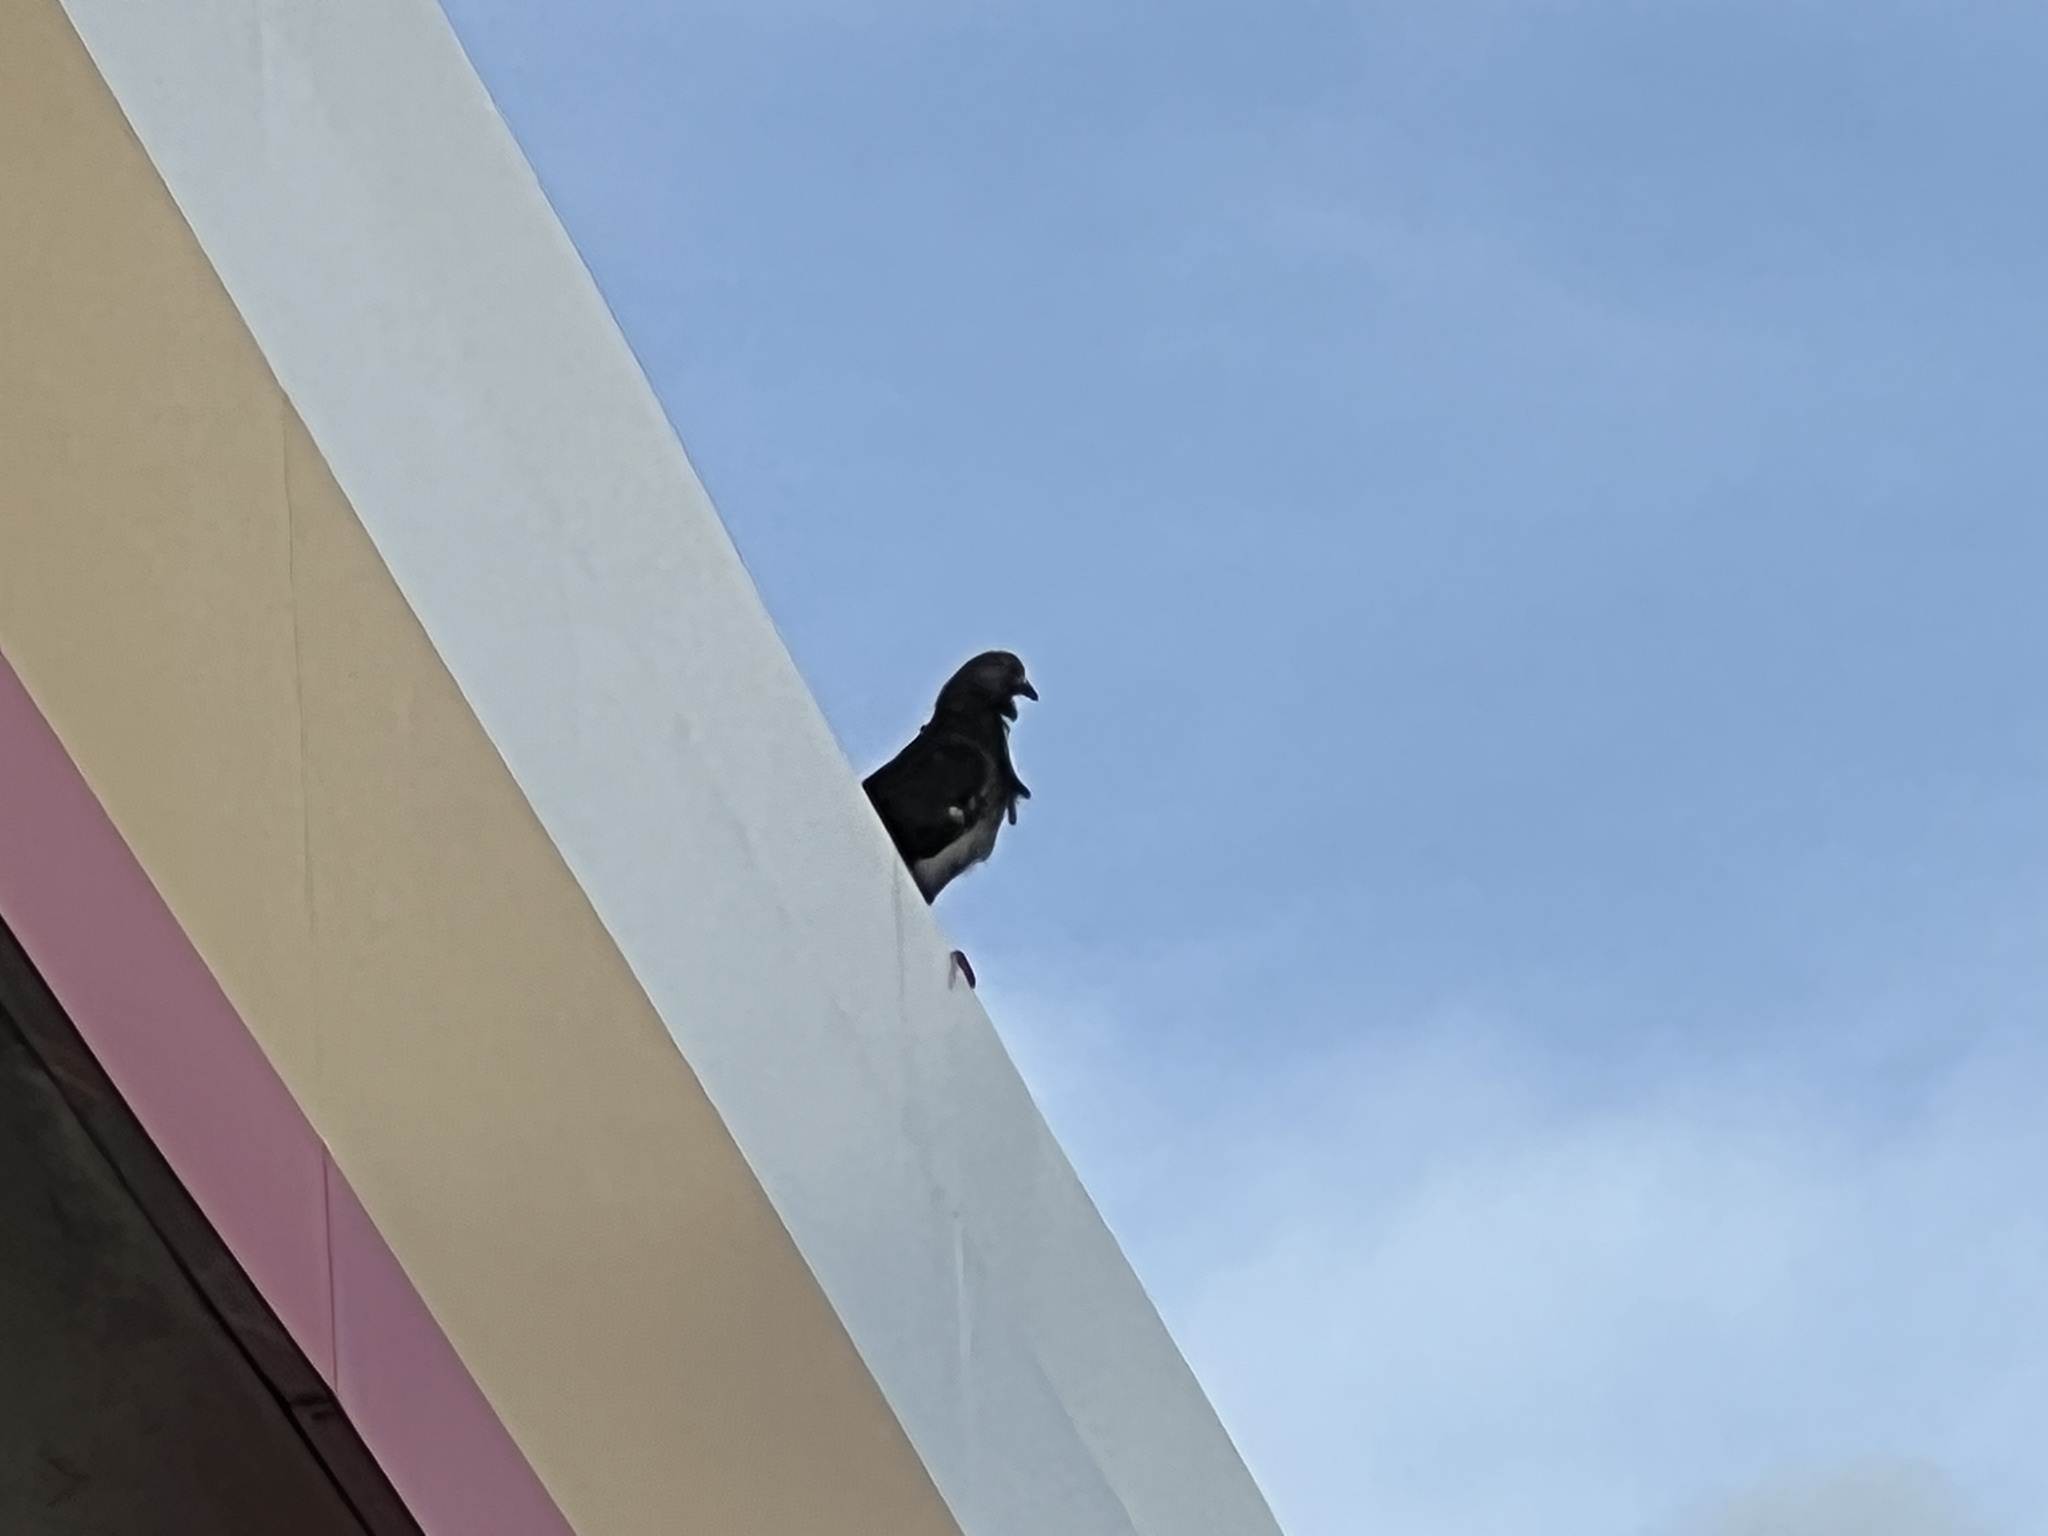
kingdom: Animalia
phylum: Chordata
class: Aves
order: Columbiformes
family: Columbidae
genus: Columba
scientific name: Columba livia
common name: Rock pigeon
